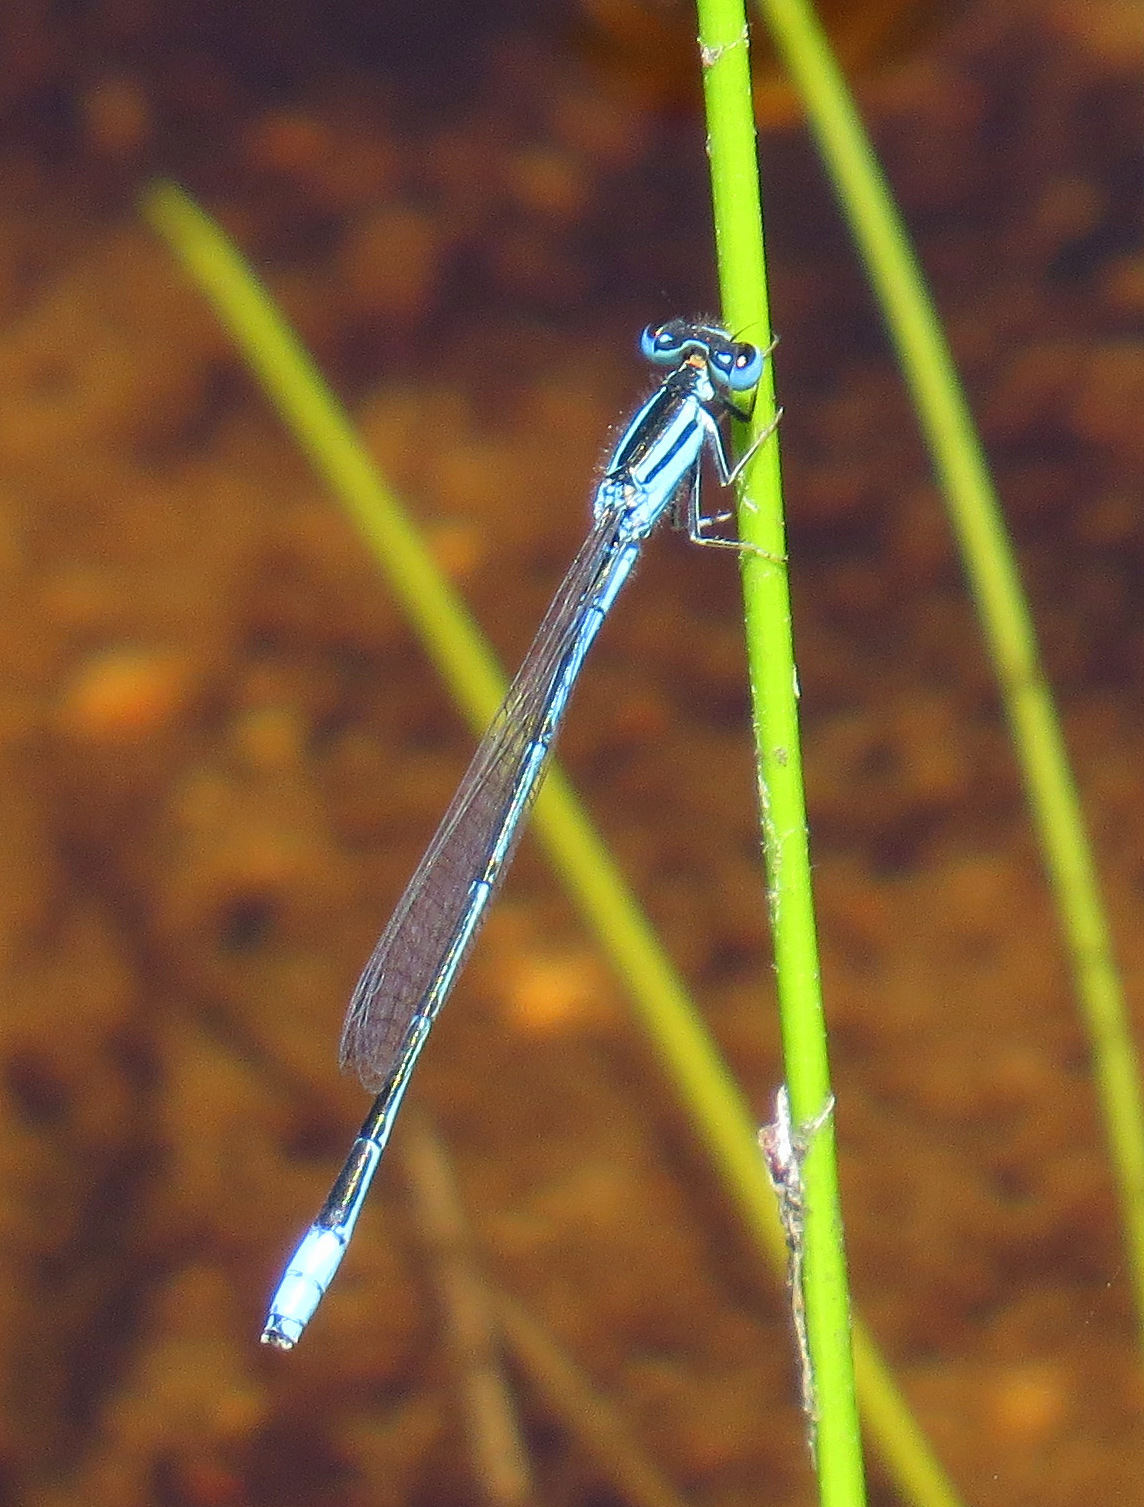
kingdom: Animalia
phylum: Arthropoda
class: Insecta
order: Odonata
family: Coenagrionidae
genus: Africallagma
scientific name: Africallagma glaucum
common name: Swamp bluet
